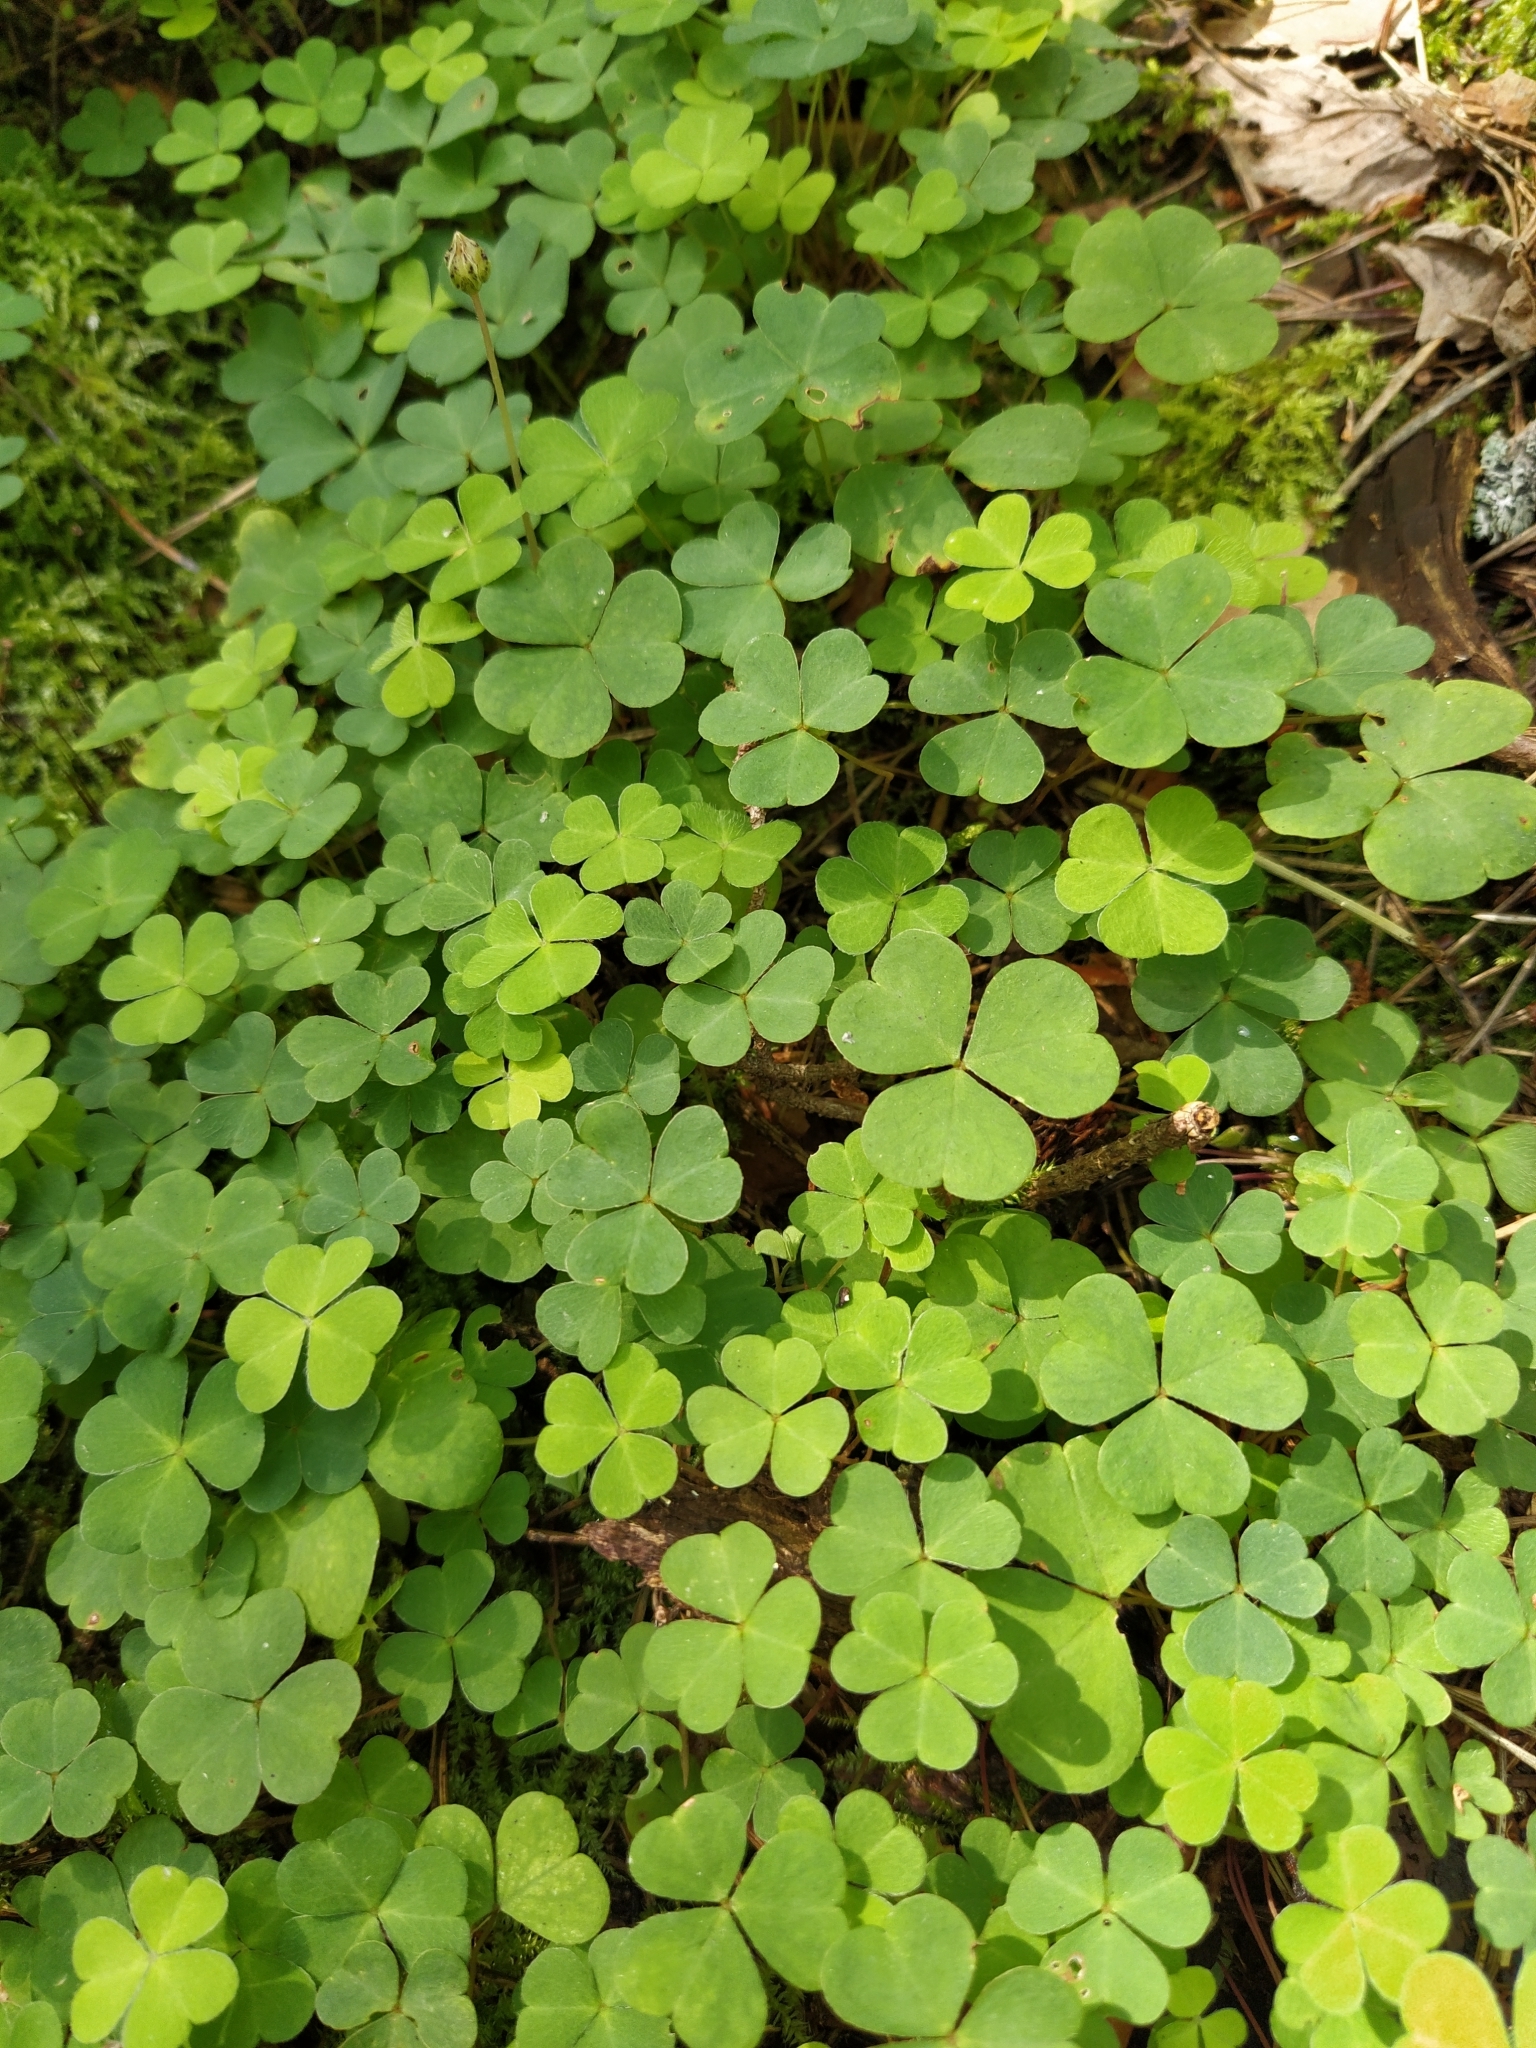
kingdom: Plantae
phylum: Tracheophyta
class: Magnoliopsida
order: Oxalidales
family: Oxalidaceae
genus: Oxalis
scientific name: Oxalis acetosella
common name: Wood-sorrel
